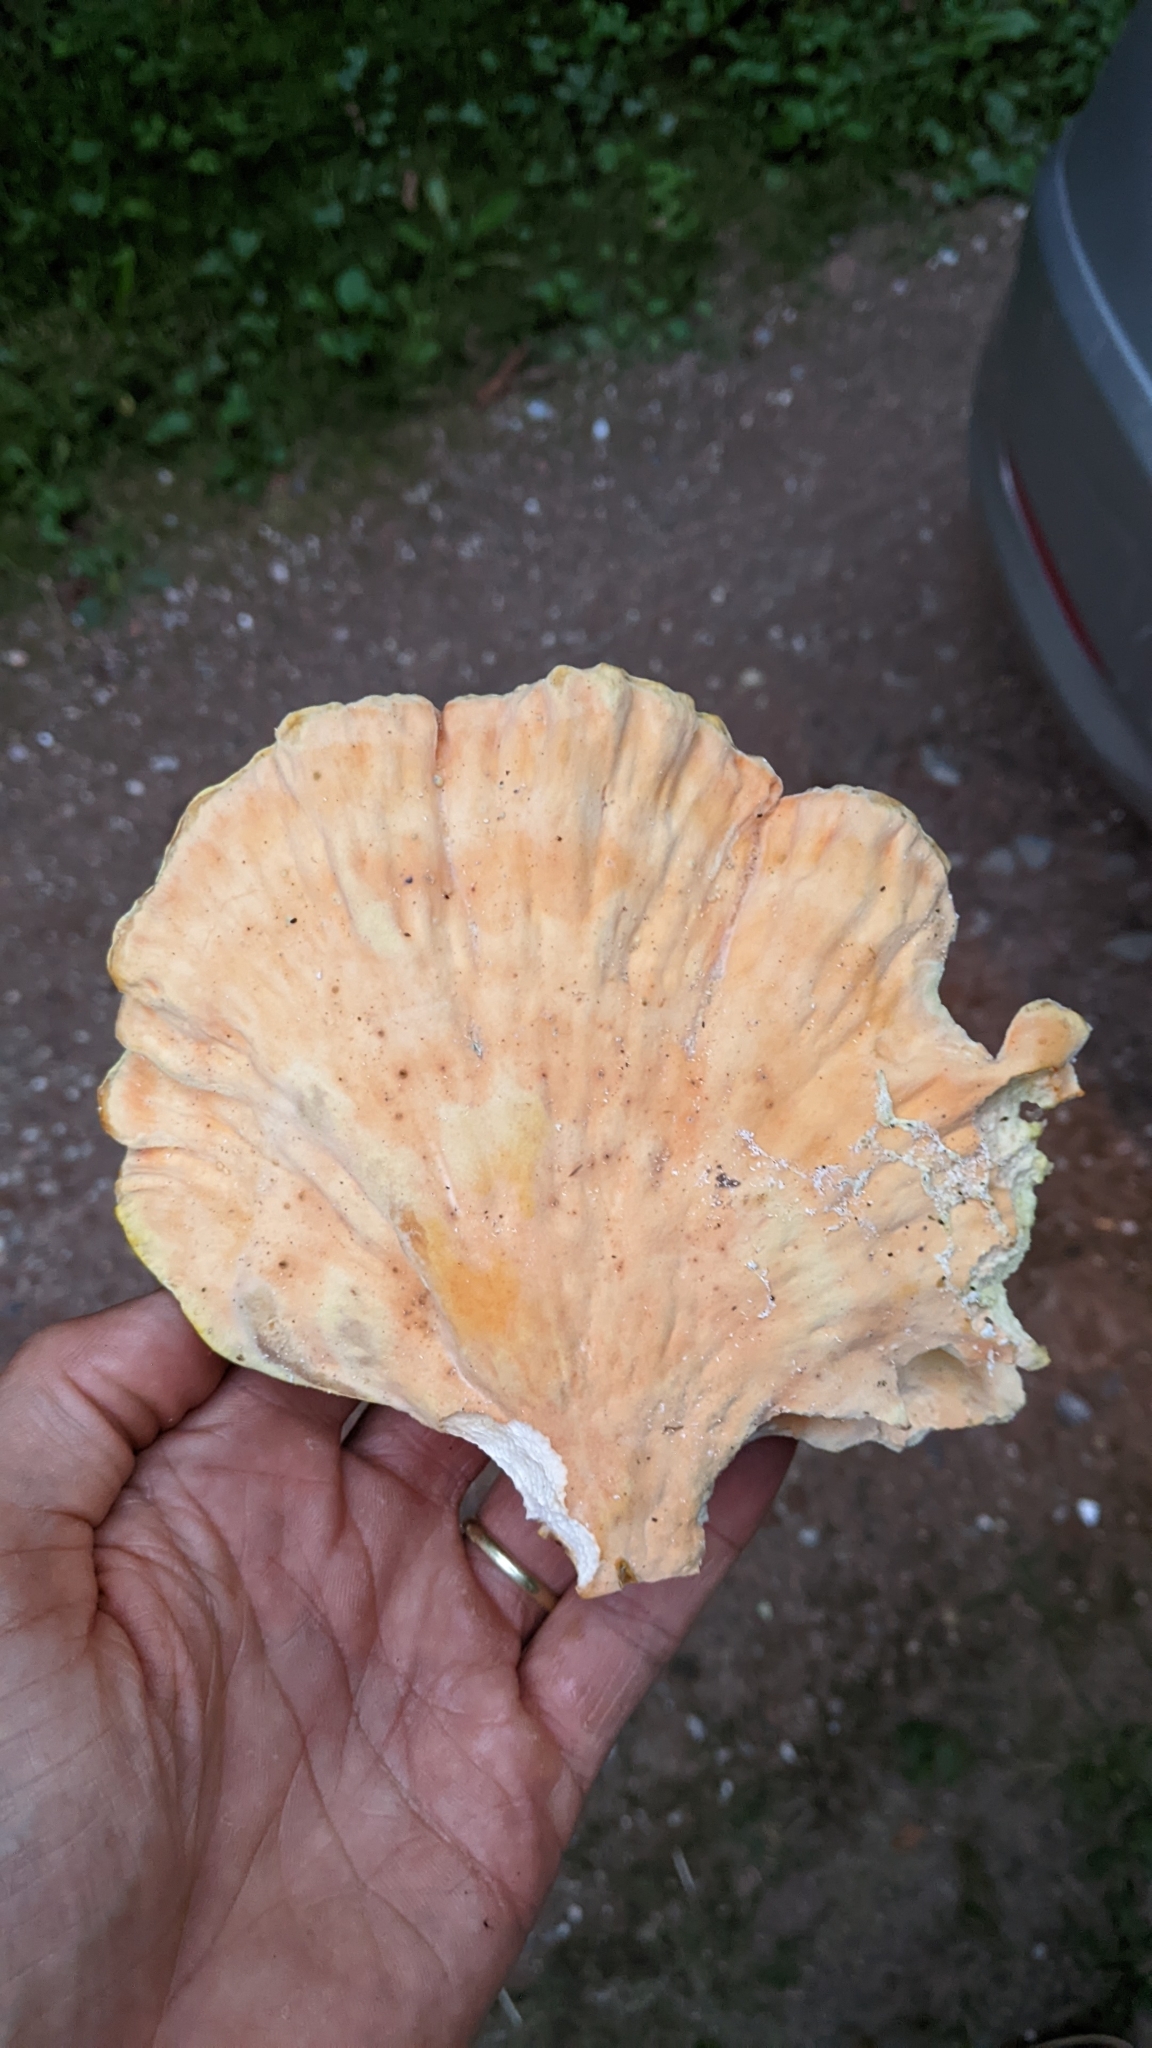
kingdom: Fungi
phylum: Basidiomycota
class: Agaricomycetes
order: Polyporales
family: Laetiporaceae
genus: Laetiporus
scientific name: Laetiporus sulphureus
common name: Chicken of the woods
